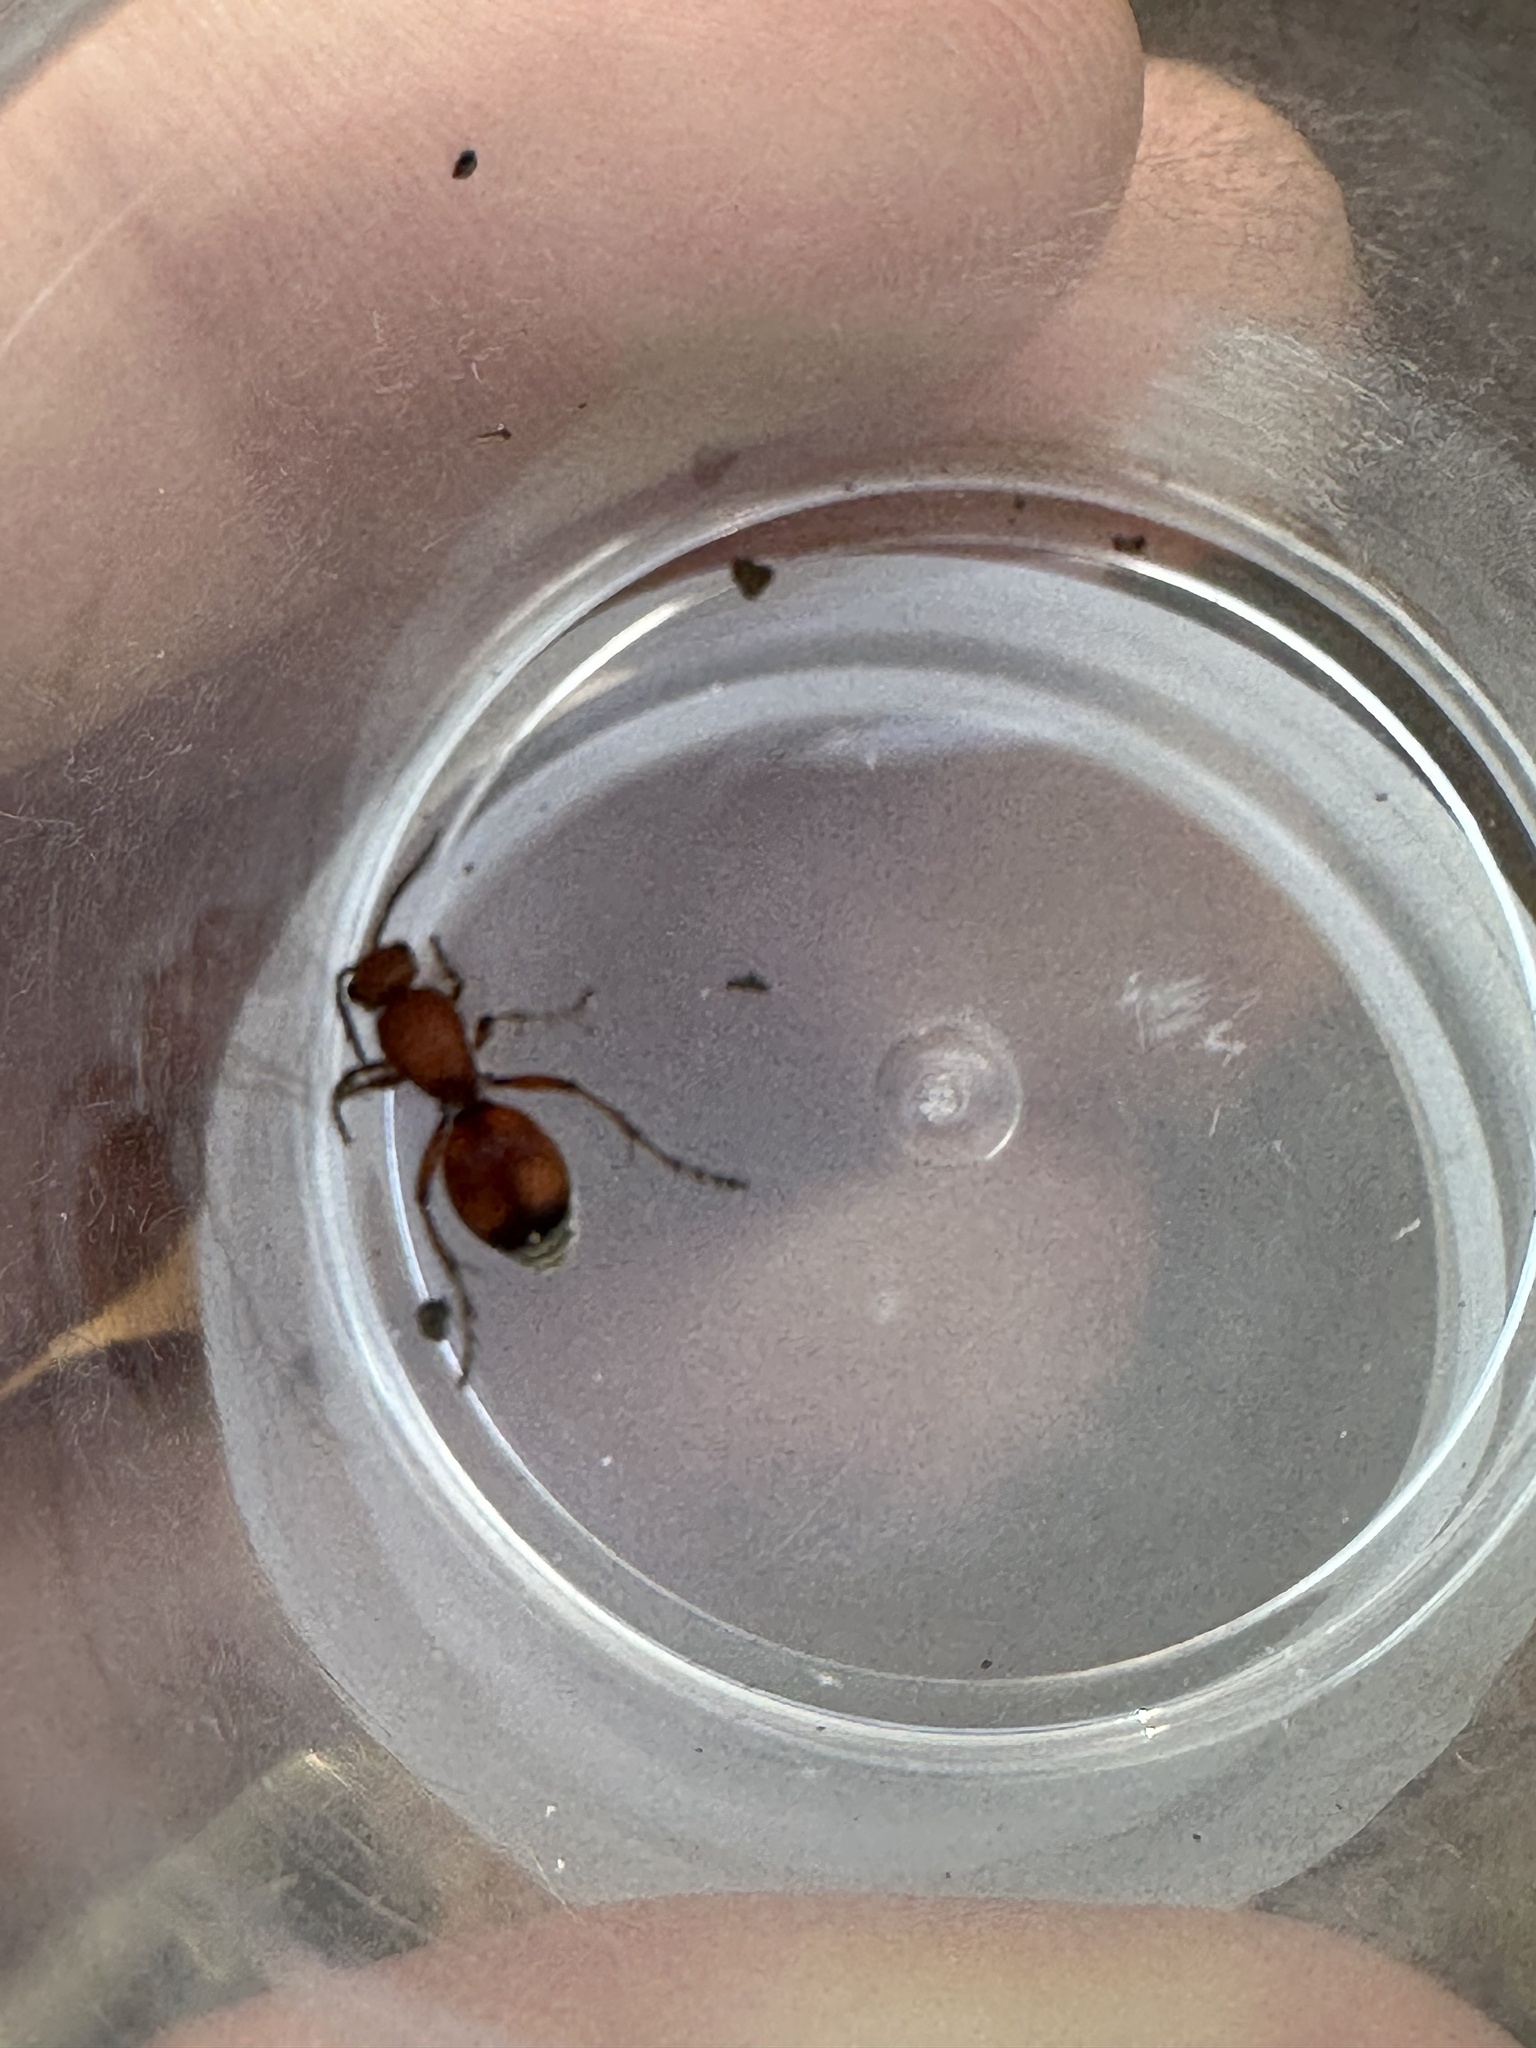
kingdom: Animalia
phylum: Arthropoda
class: Insecta
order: Hymenoptera
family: Mutillidae
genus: Dasymutilla
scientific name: Dasymutilla
